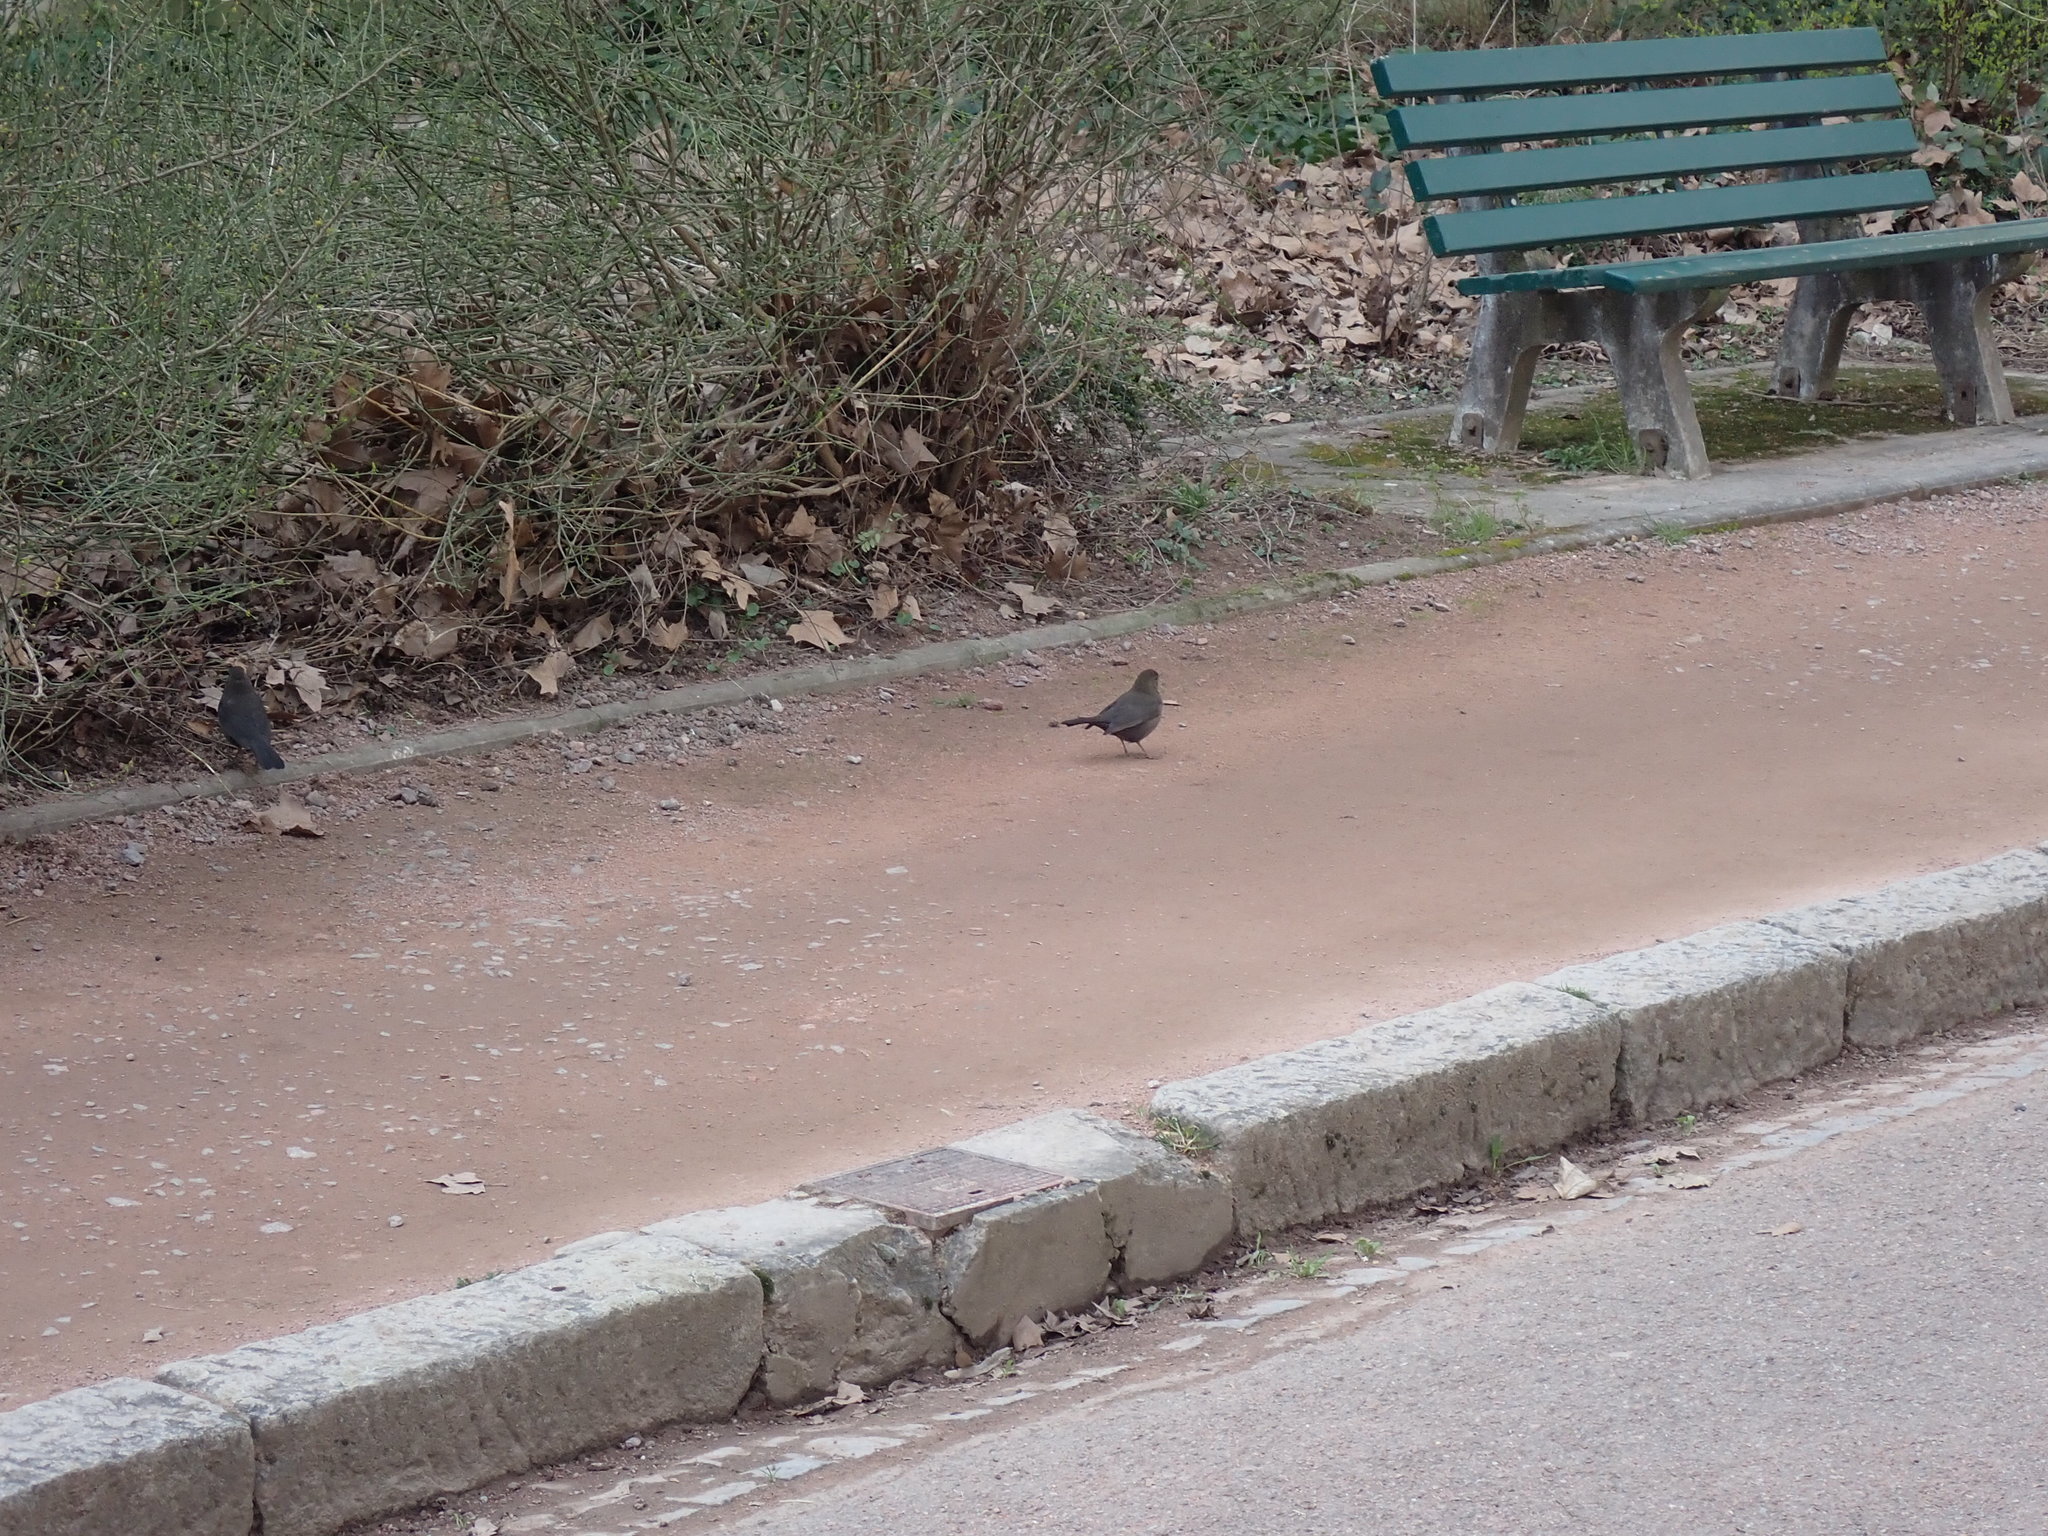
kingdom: Animalia
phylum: Chordata
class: Aves
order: Passeriformes
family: Turdidae
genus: Turdus
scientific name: Turdus merula
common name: Common blackbird
